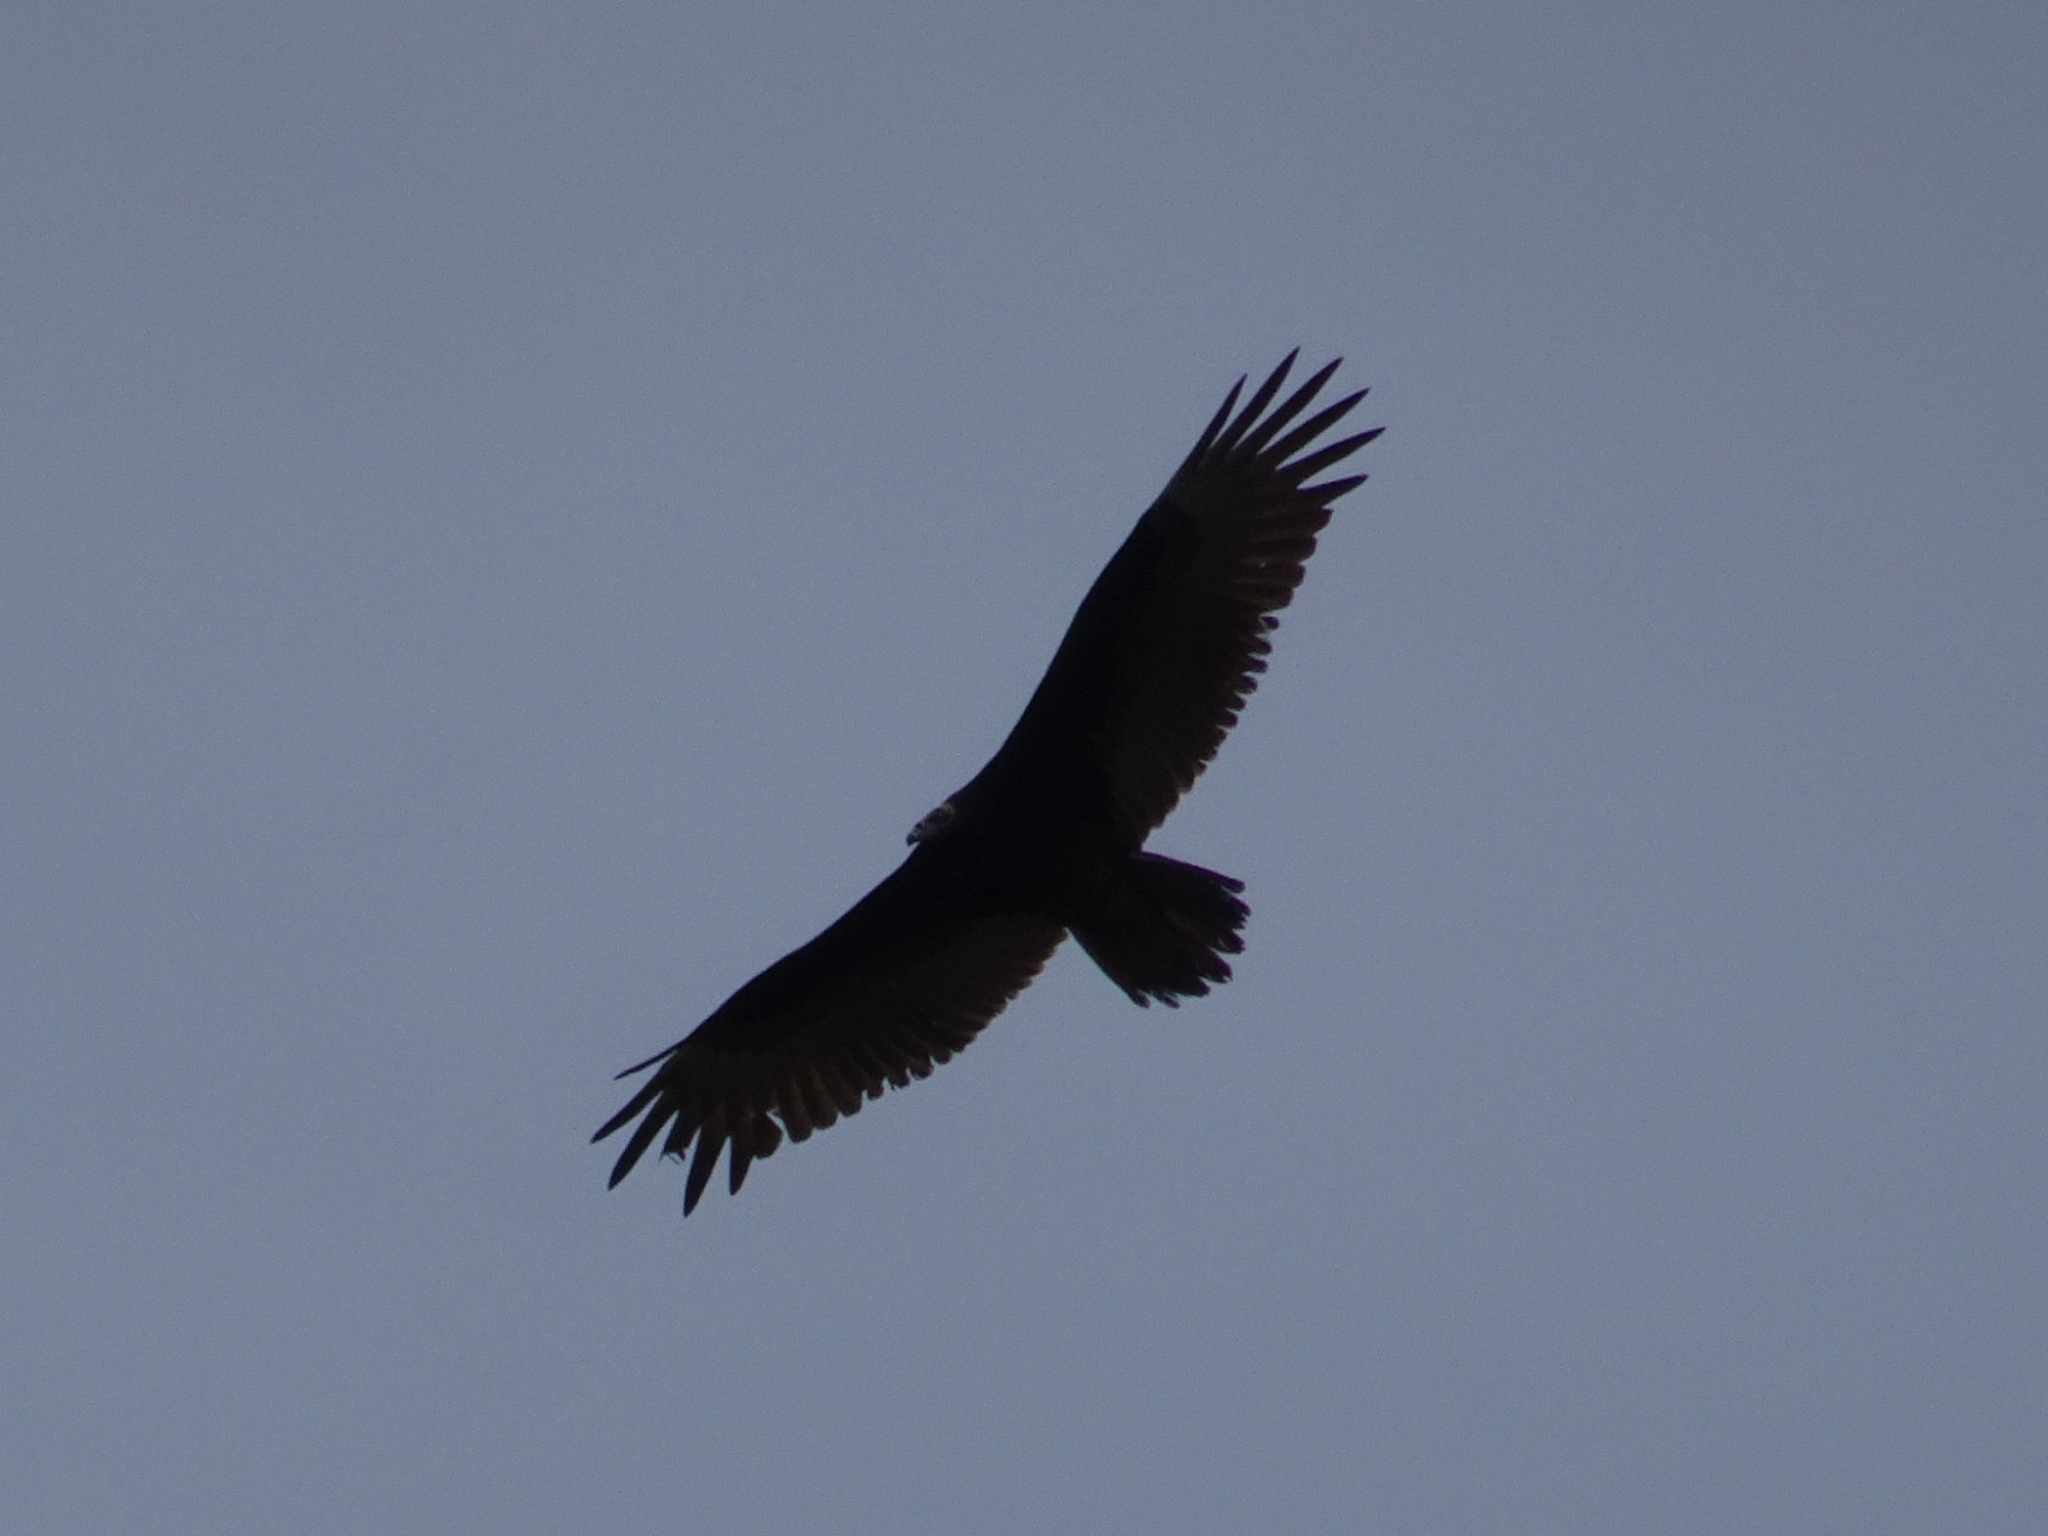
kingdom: Animalia
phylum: Chordata
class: Aves
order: Accipitriformes
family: Cathartidae
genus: Cathartes
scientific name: Cathartes aura
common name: Turkey vulture
